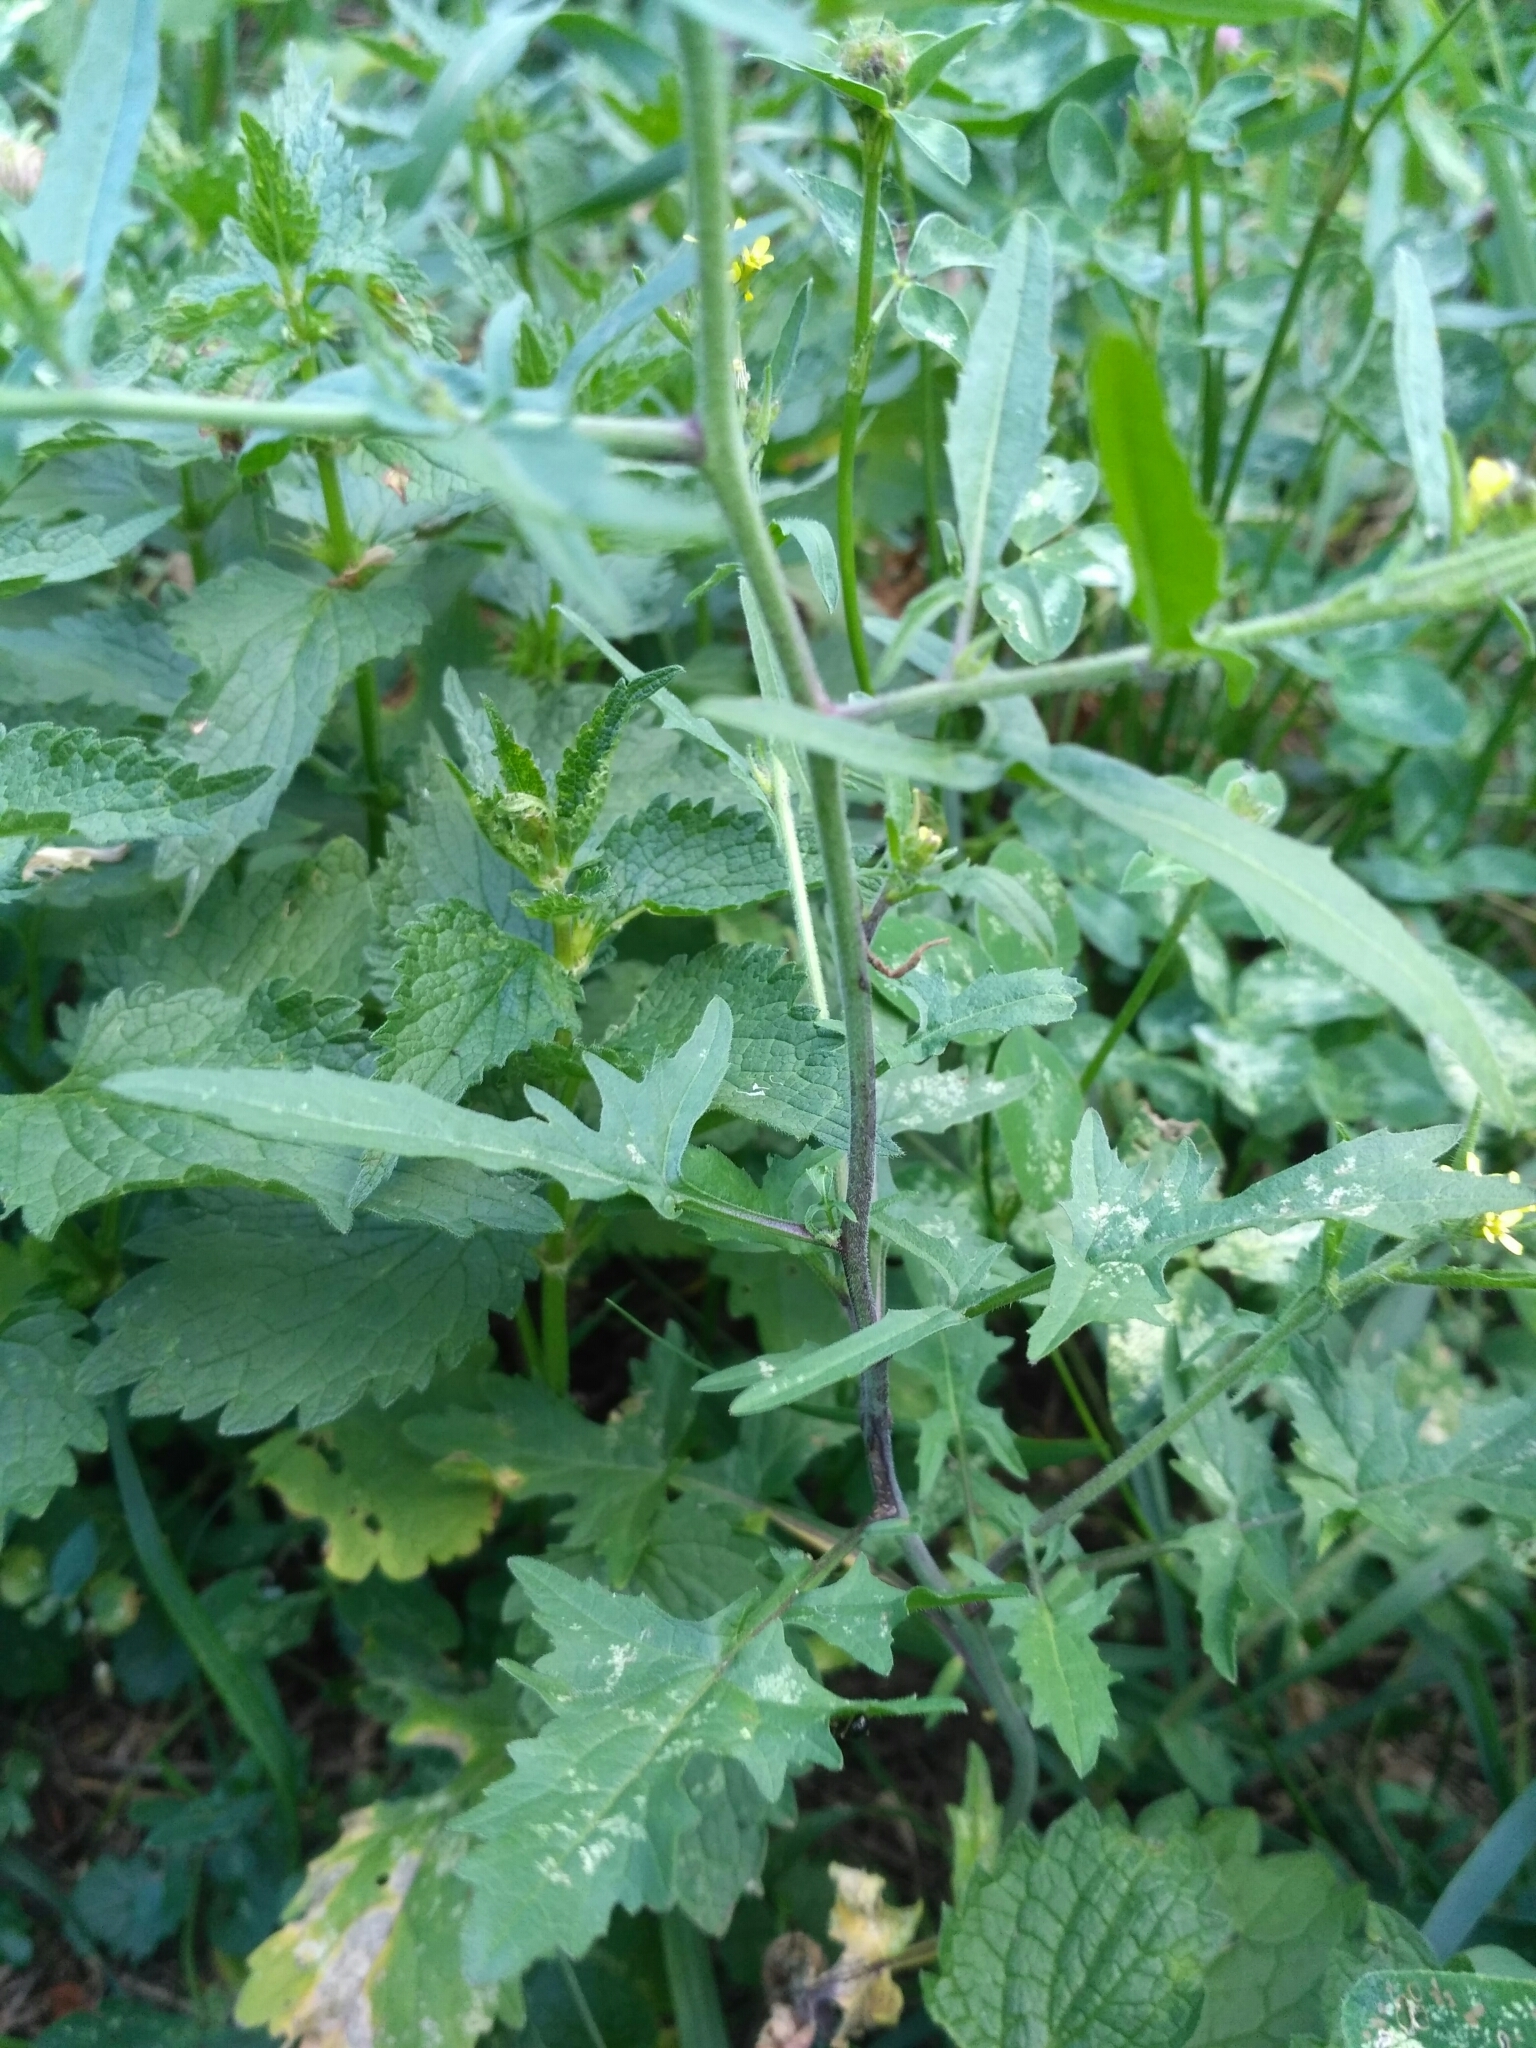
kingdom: Plantae
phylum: Tracheophyta
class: Magnoliopsida
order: Brassicales
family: Brassicaceae
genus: Sisymbrium
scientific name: Sisymbrium officinale
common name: Hedge mustard
